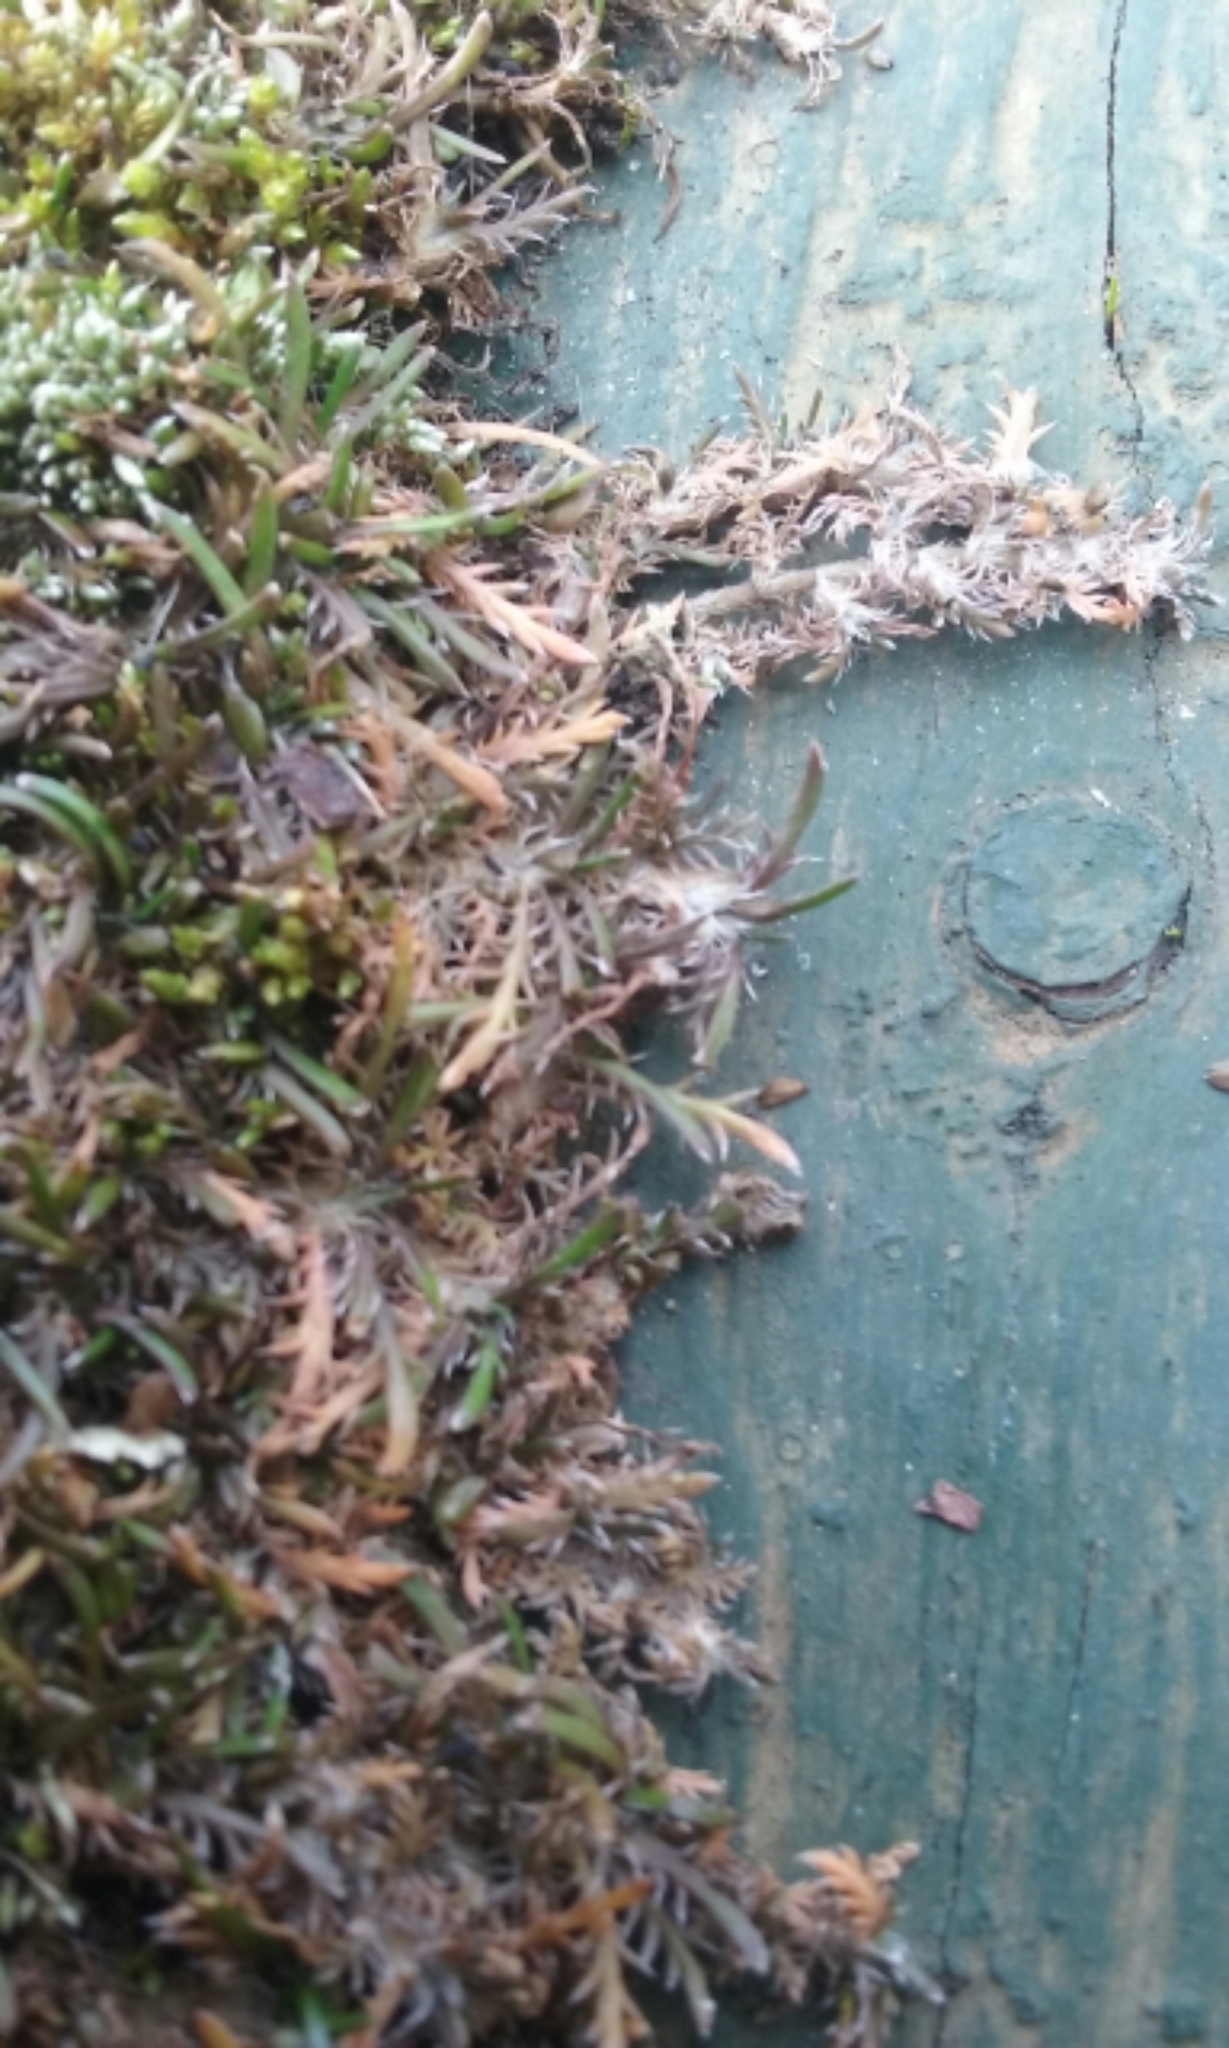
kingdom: Plantae
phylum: Tracheophyta
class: Magnoliopsida
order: Asterales
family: Asteraceae
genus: Leptinella
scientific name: Leptinella maniototo
